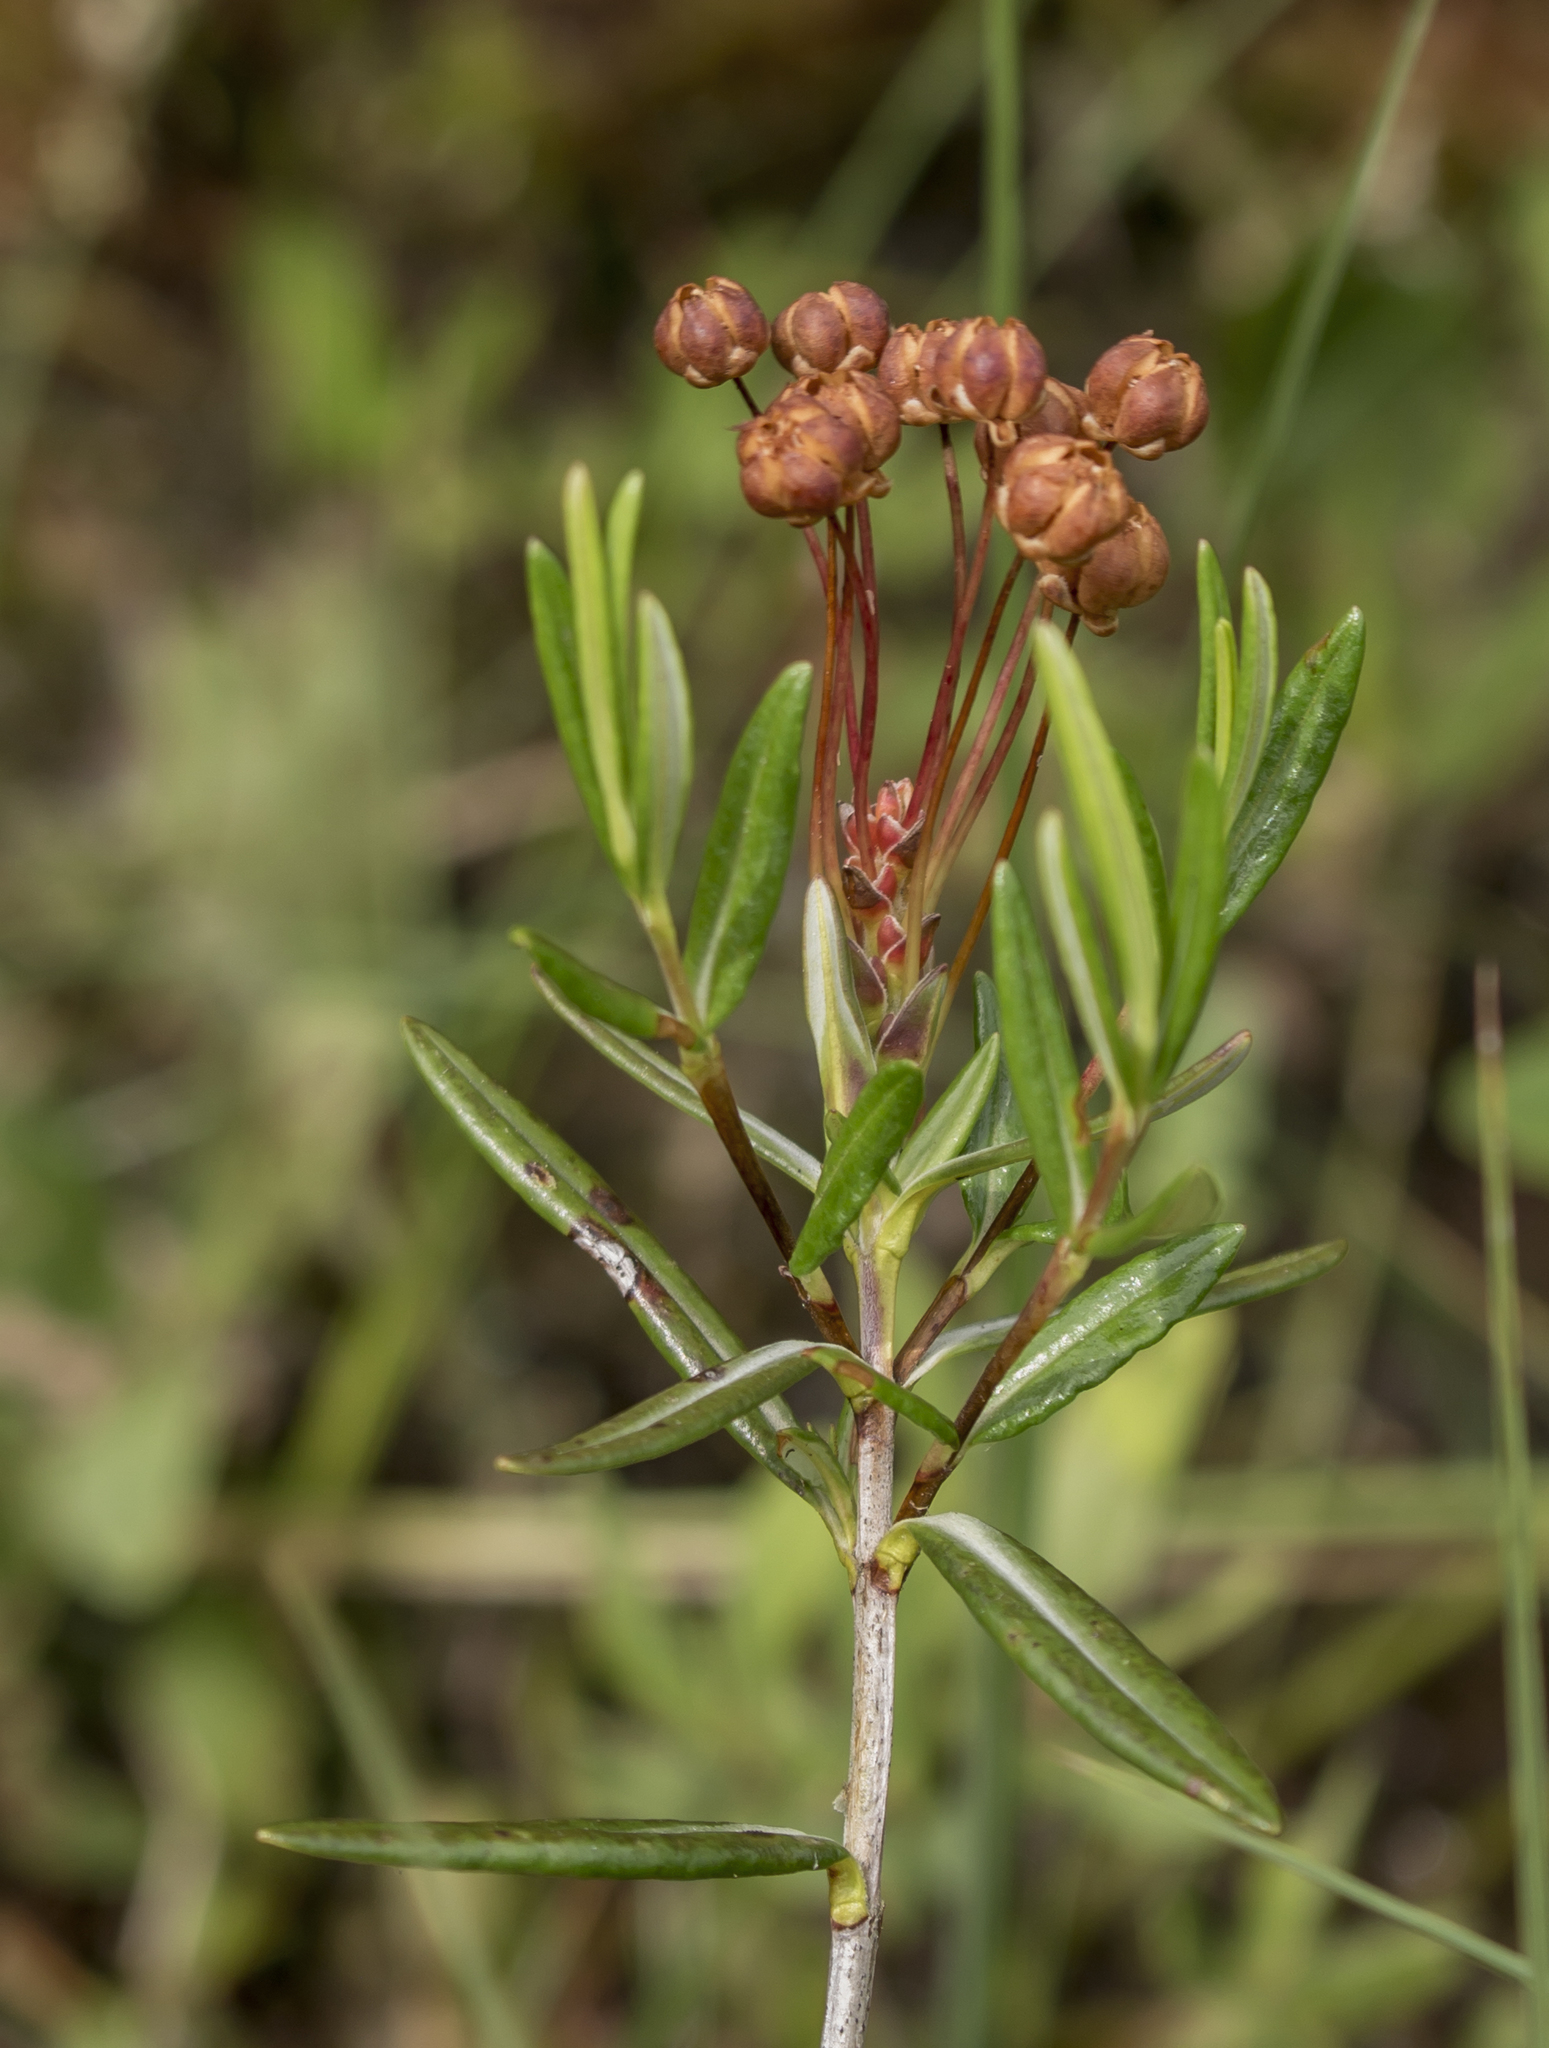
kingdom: Plantae
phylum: Tracheophyta
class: Magnoliopsida
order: Ericales
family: Ericaceae
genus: Kalmia
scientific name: Kalmia polifolia
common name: Bog-laurel
